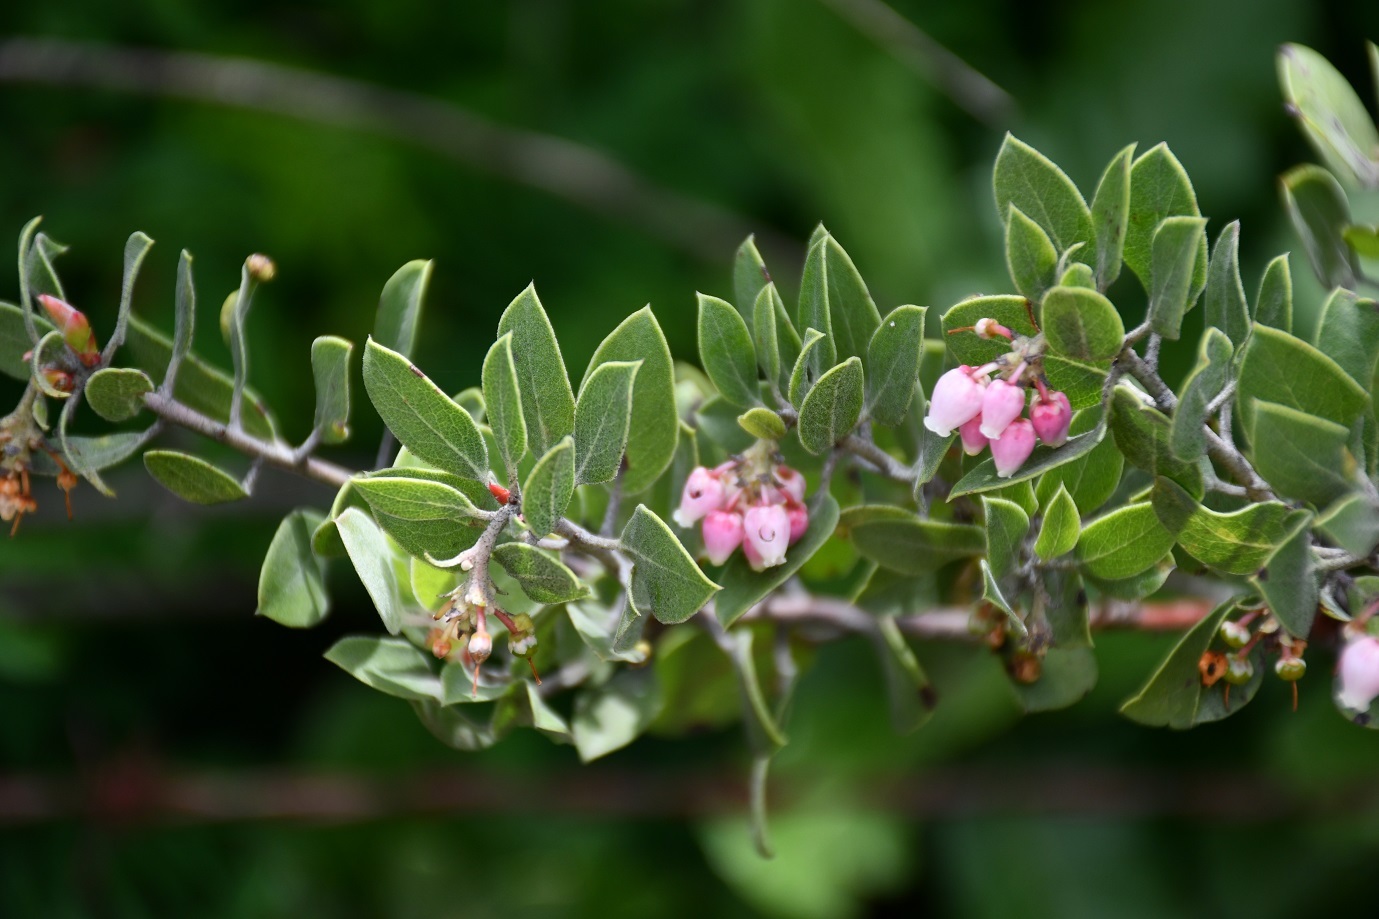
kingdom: Plantae
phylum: Tracheophyta
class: Magnoliopsida
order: Ericales
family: Ericaceae
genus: Arctostaphylos
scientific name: Arctostaphylos pungens
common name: Mexican manzanita
